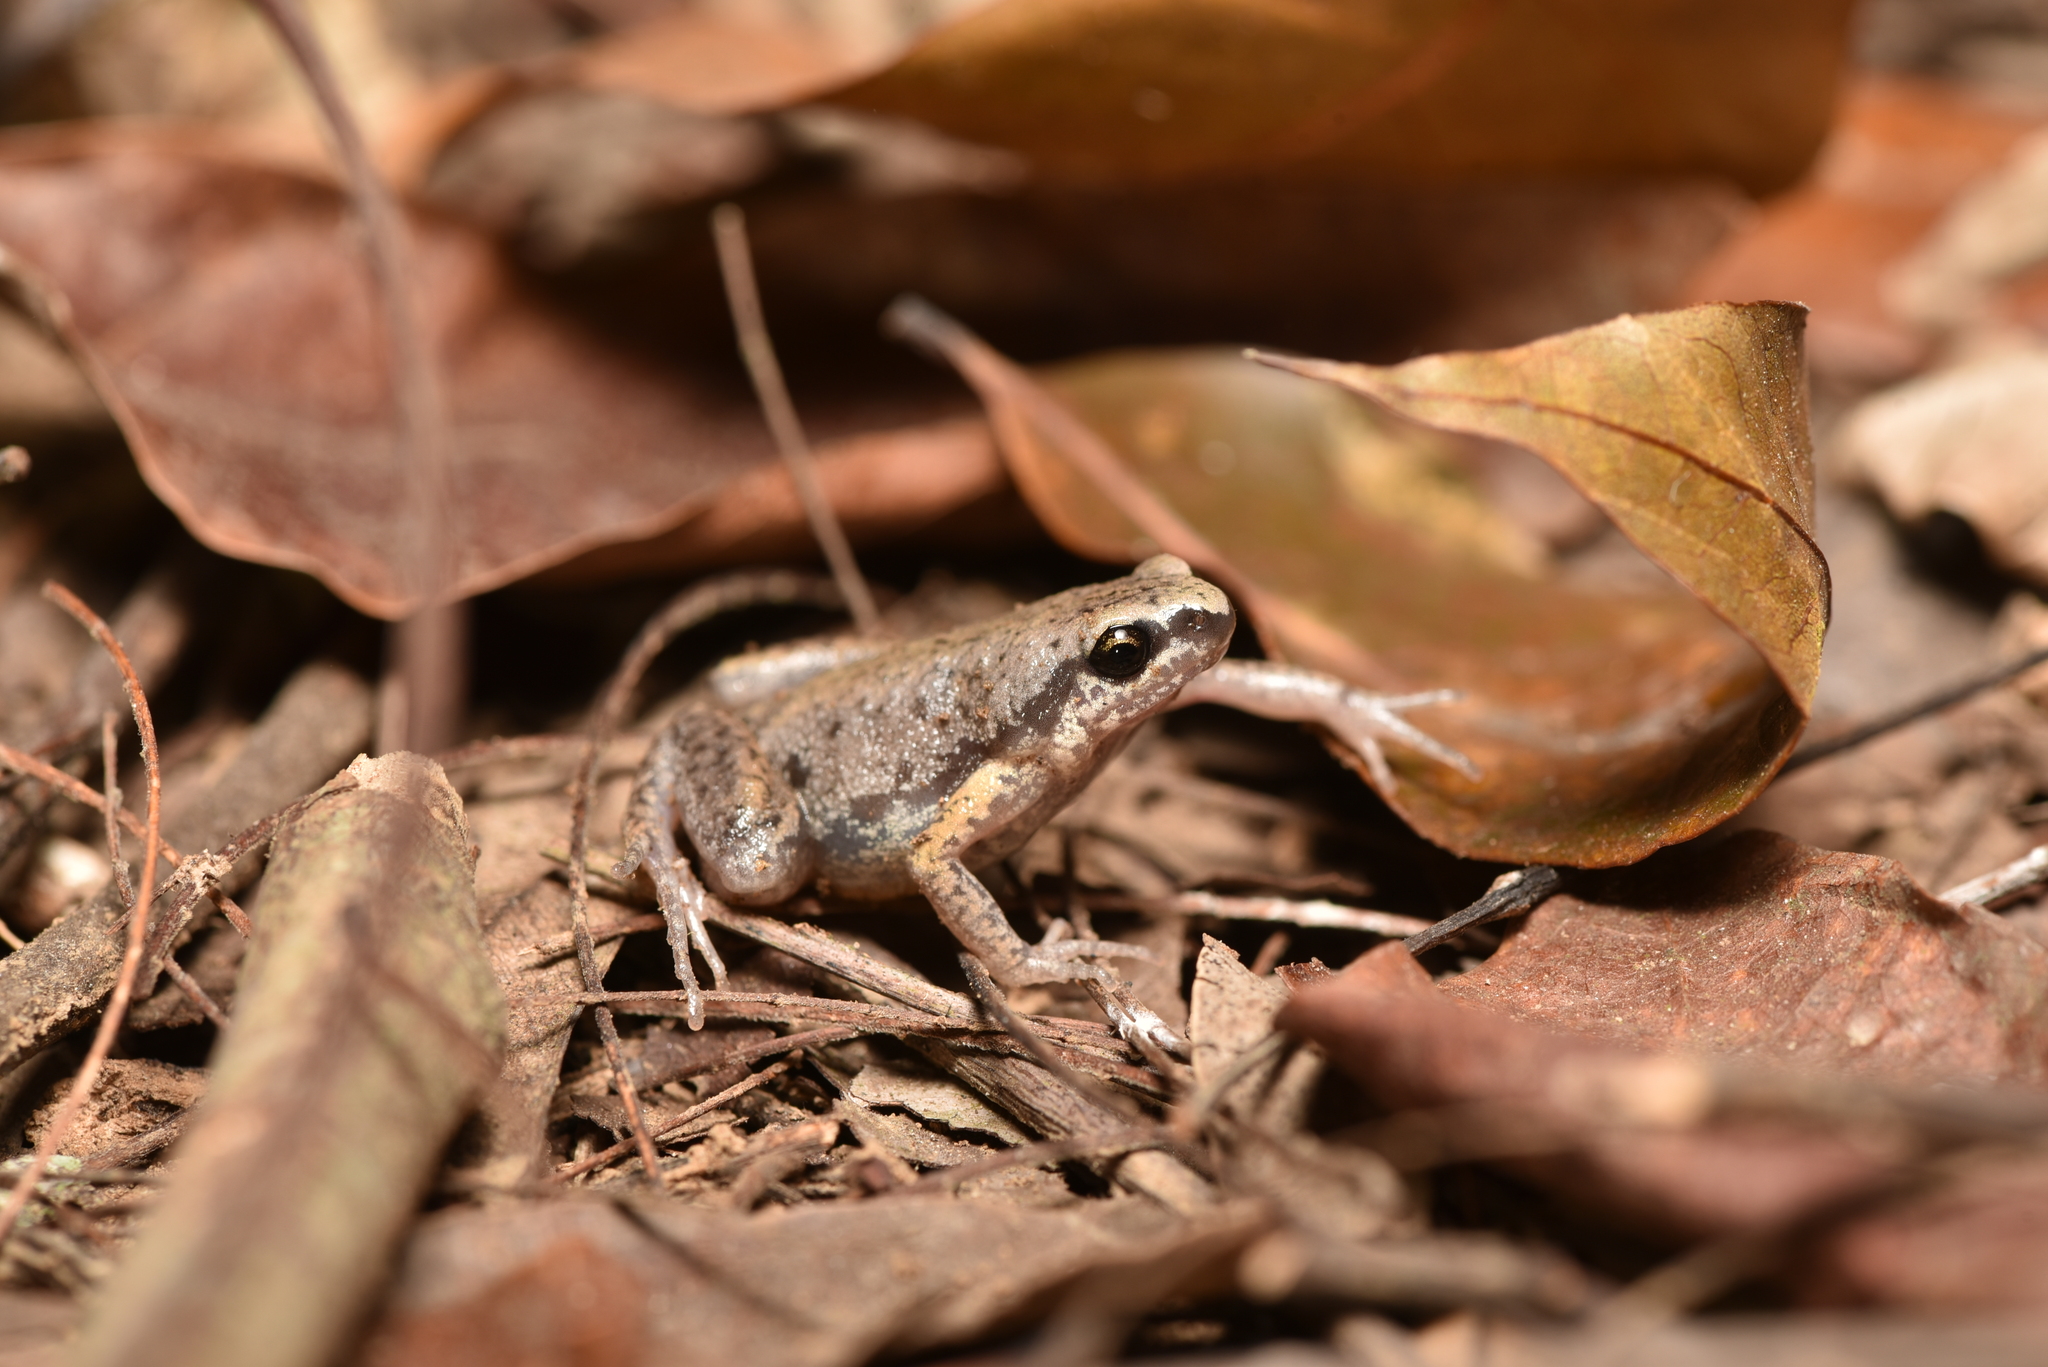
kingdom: Animalia
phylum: Chordata
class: Amphibia
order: Anura
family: Microhylidae
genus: Micryletta
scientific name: Micryletta steinegeri
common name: Stejneger's paddy frog
